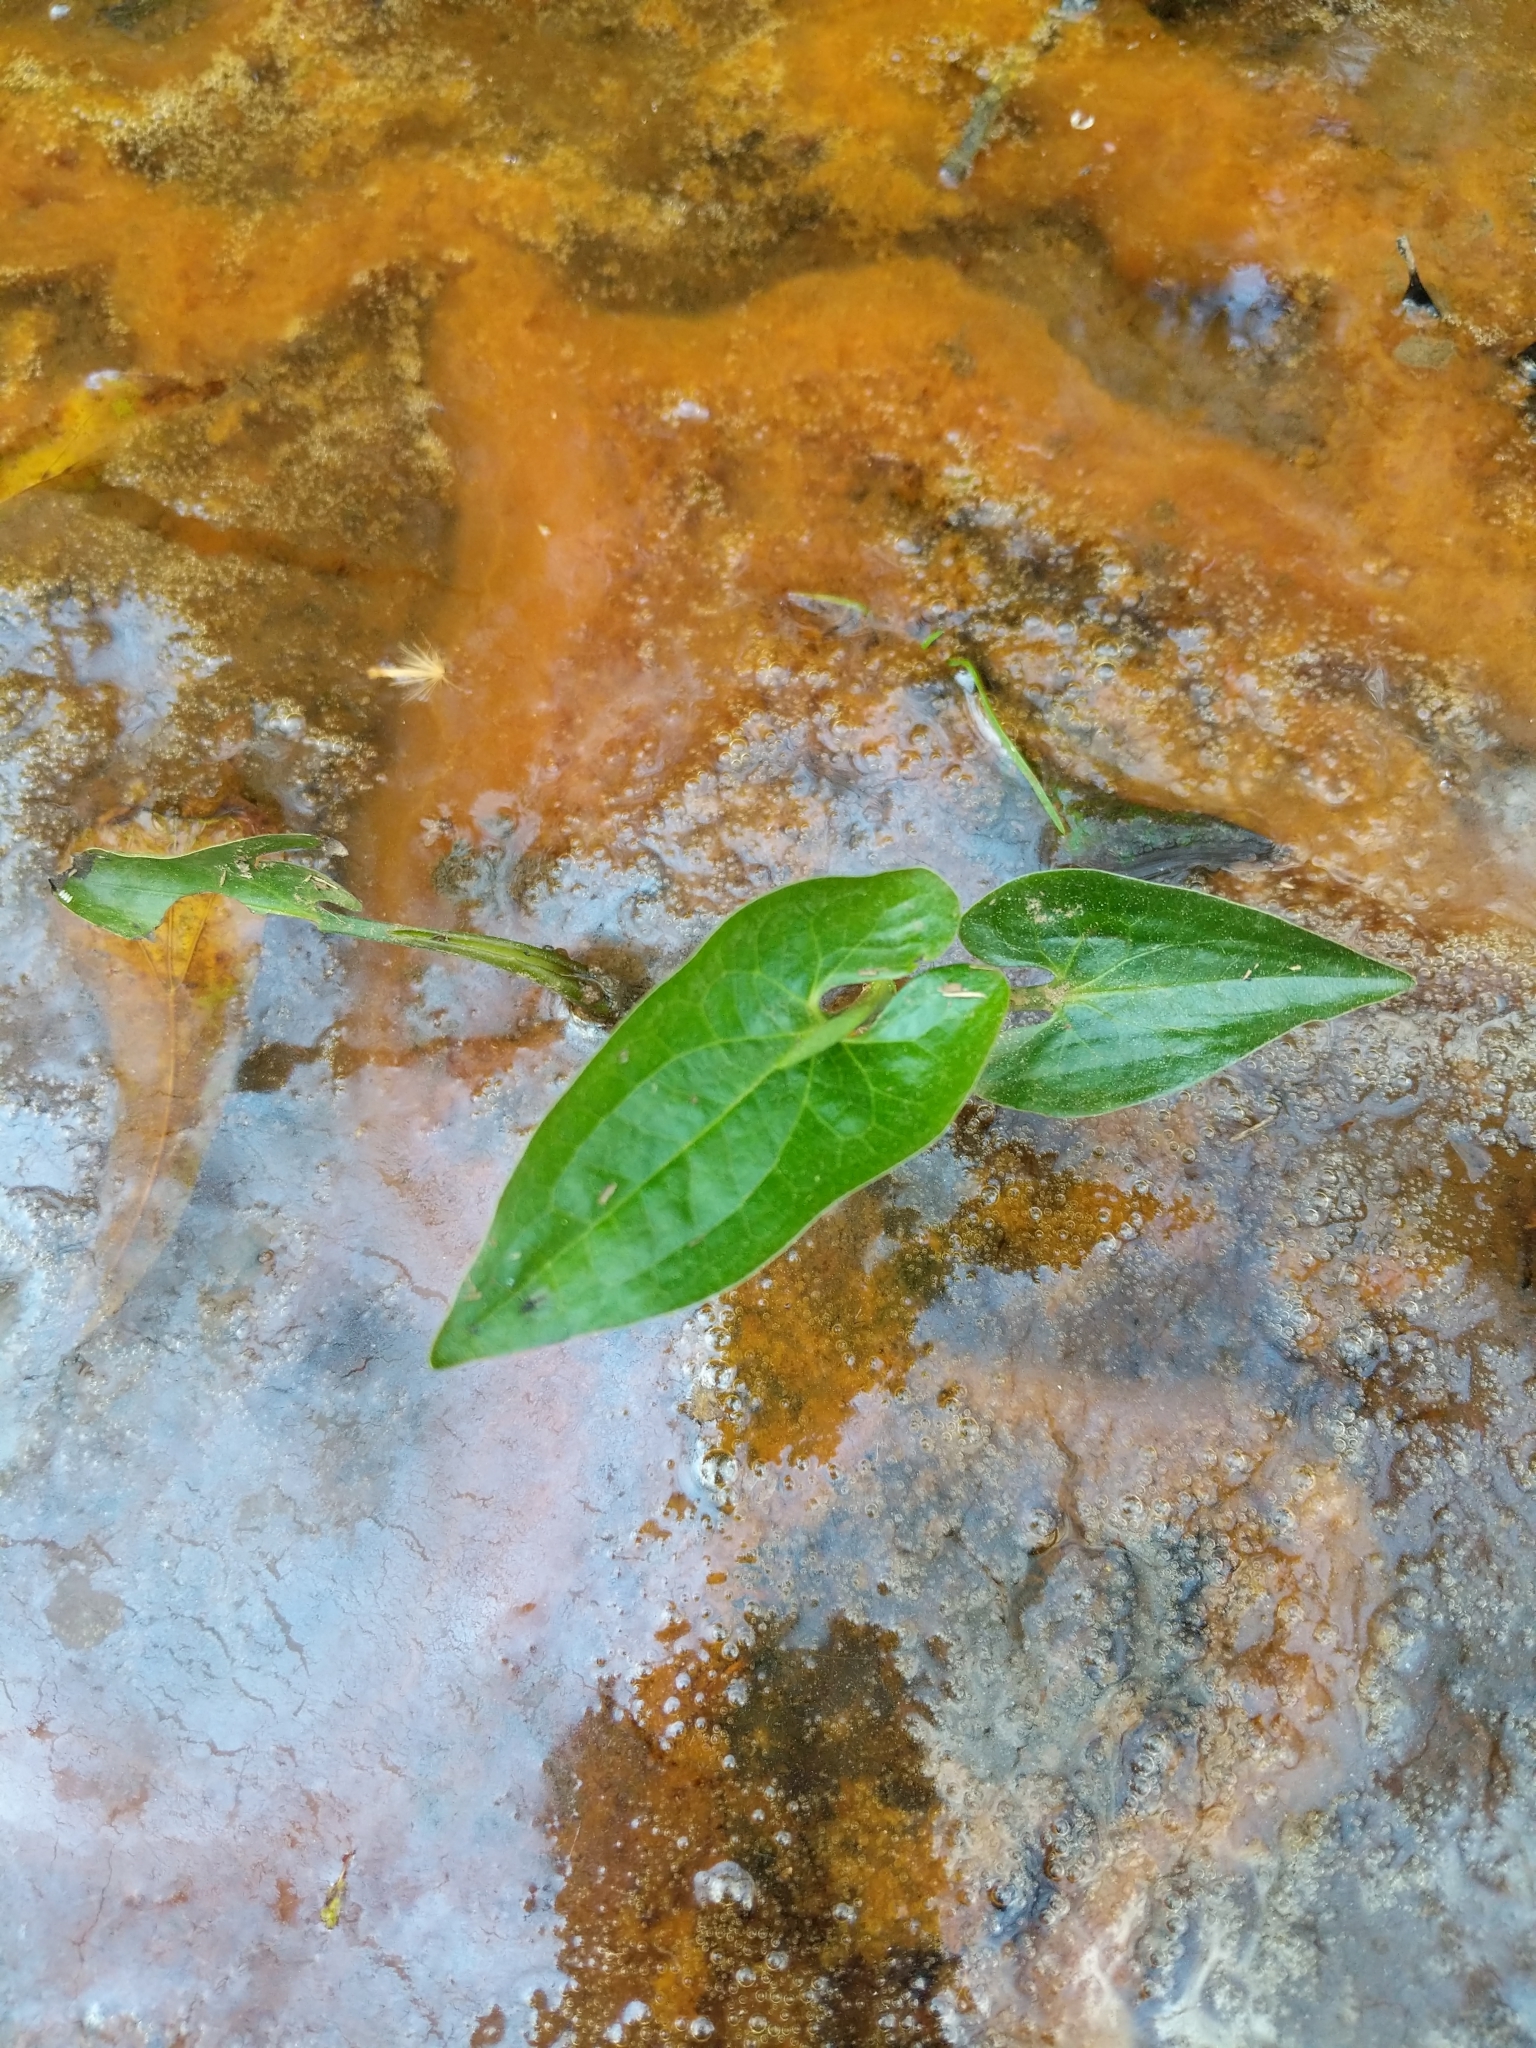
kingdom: Plantae
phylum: Tracheophyta
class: Magnoliopsida
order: Piperales
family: Saururaceae
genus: Saururus
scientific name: Saururus cernuus
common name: Lizard's-tail
